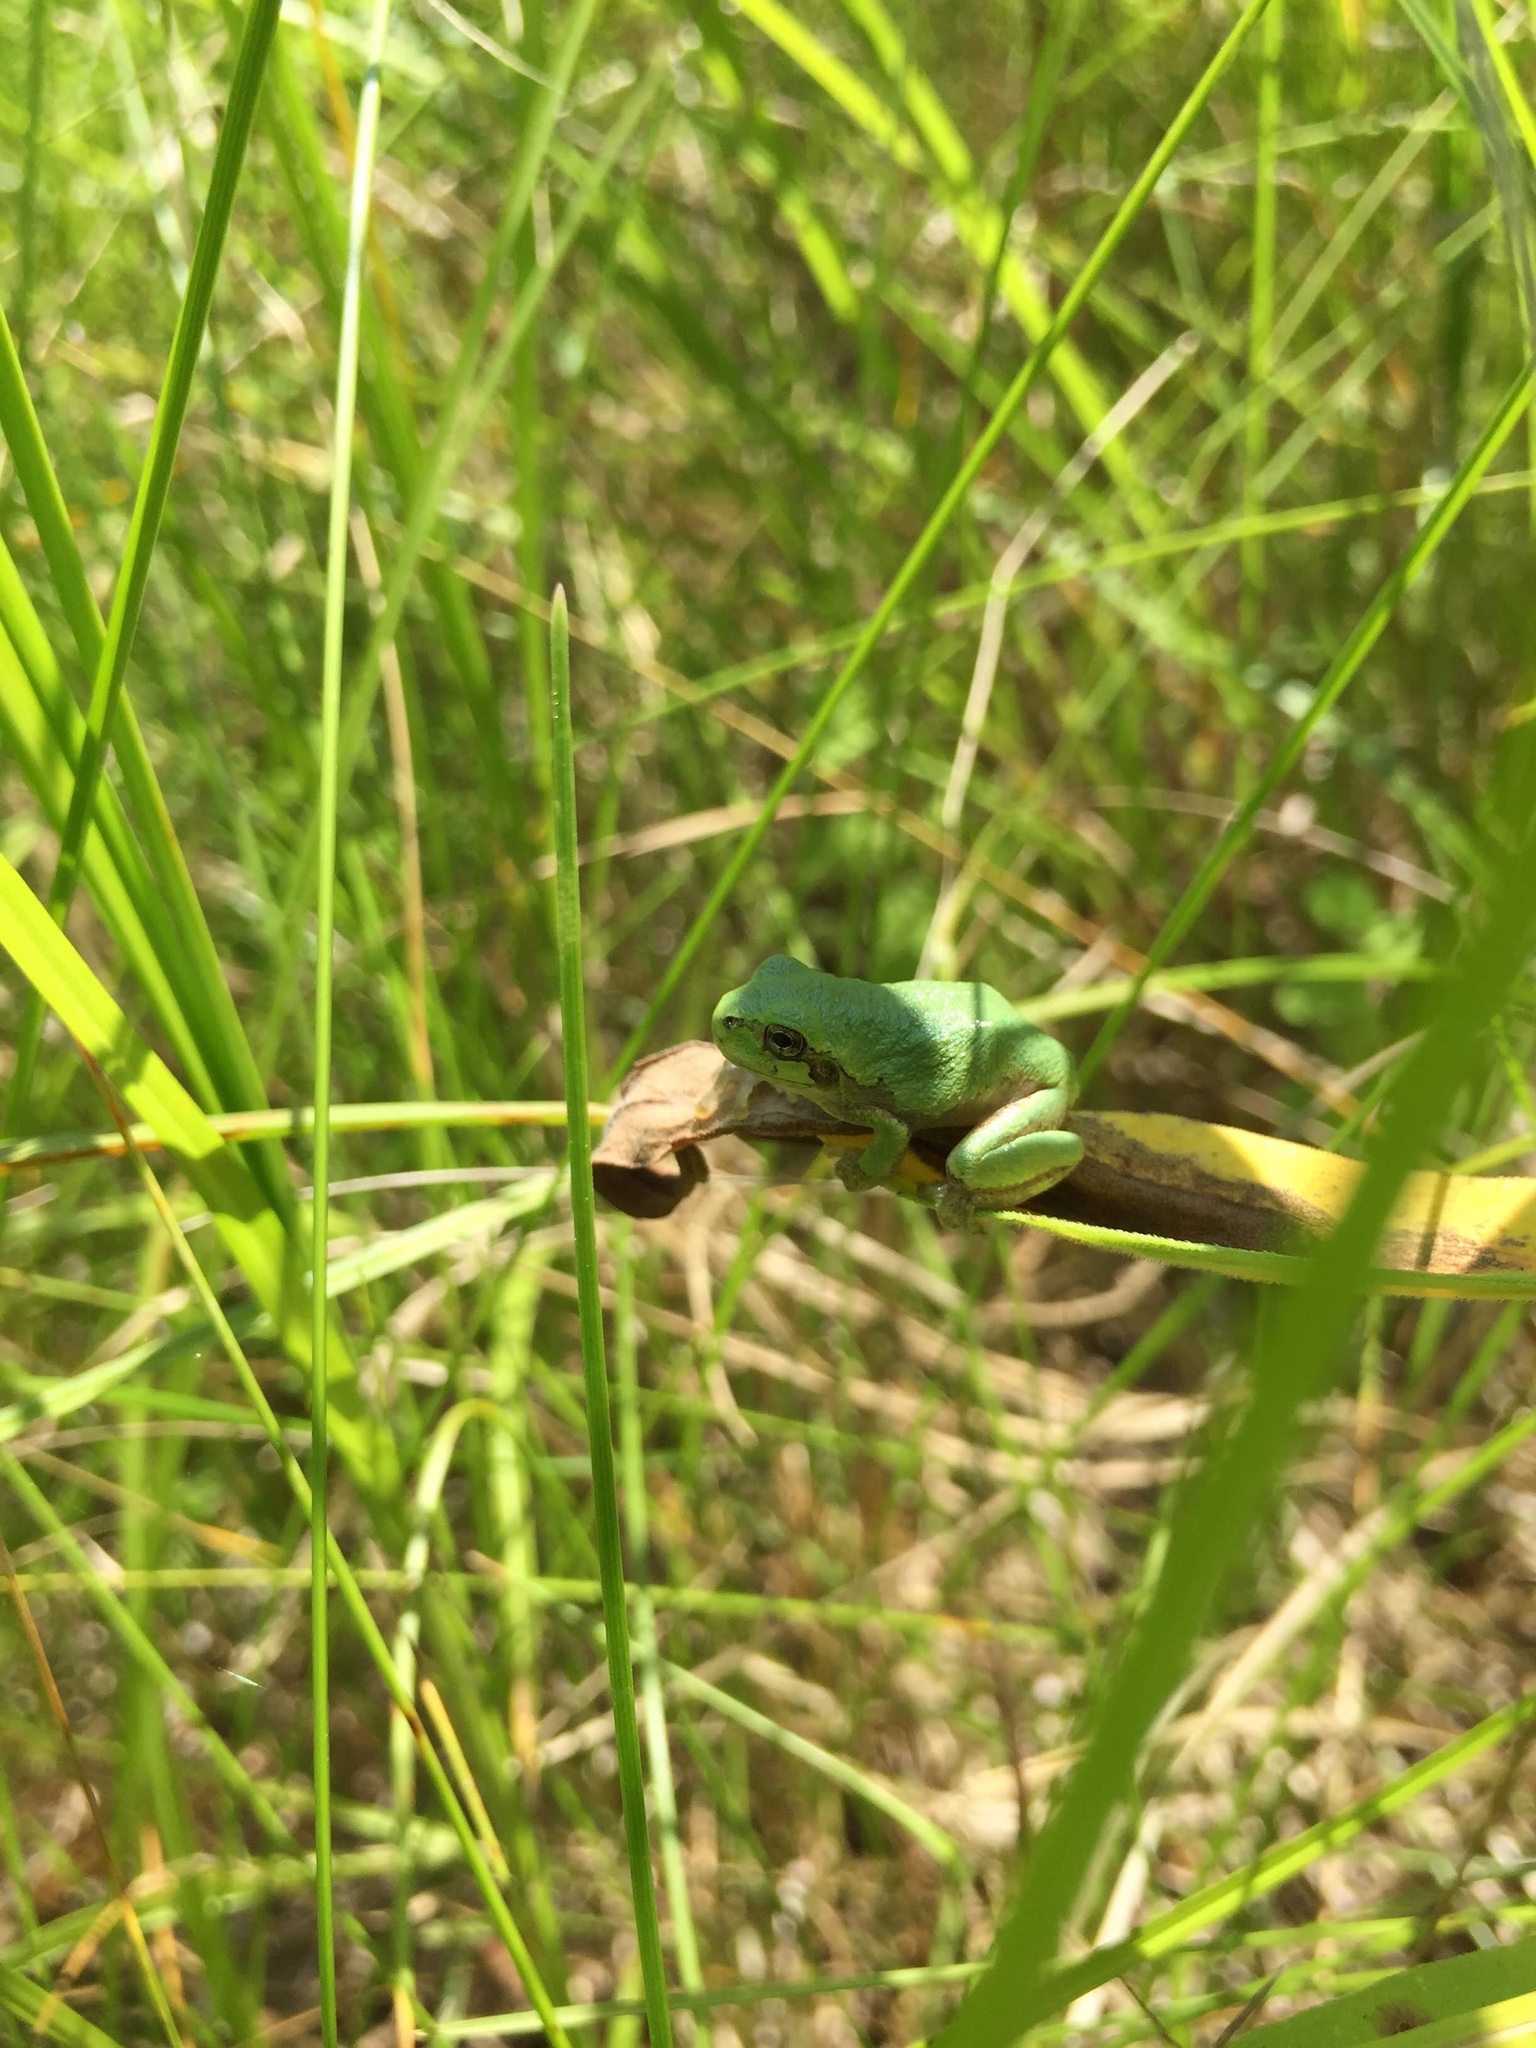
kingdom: Animalia
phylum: Chordata
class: Amphibia
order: Anura
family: Hylidae
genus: Hyla
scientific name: Hyla
